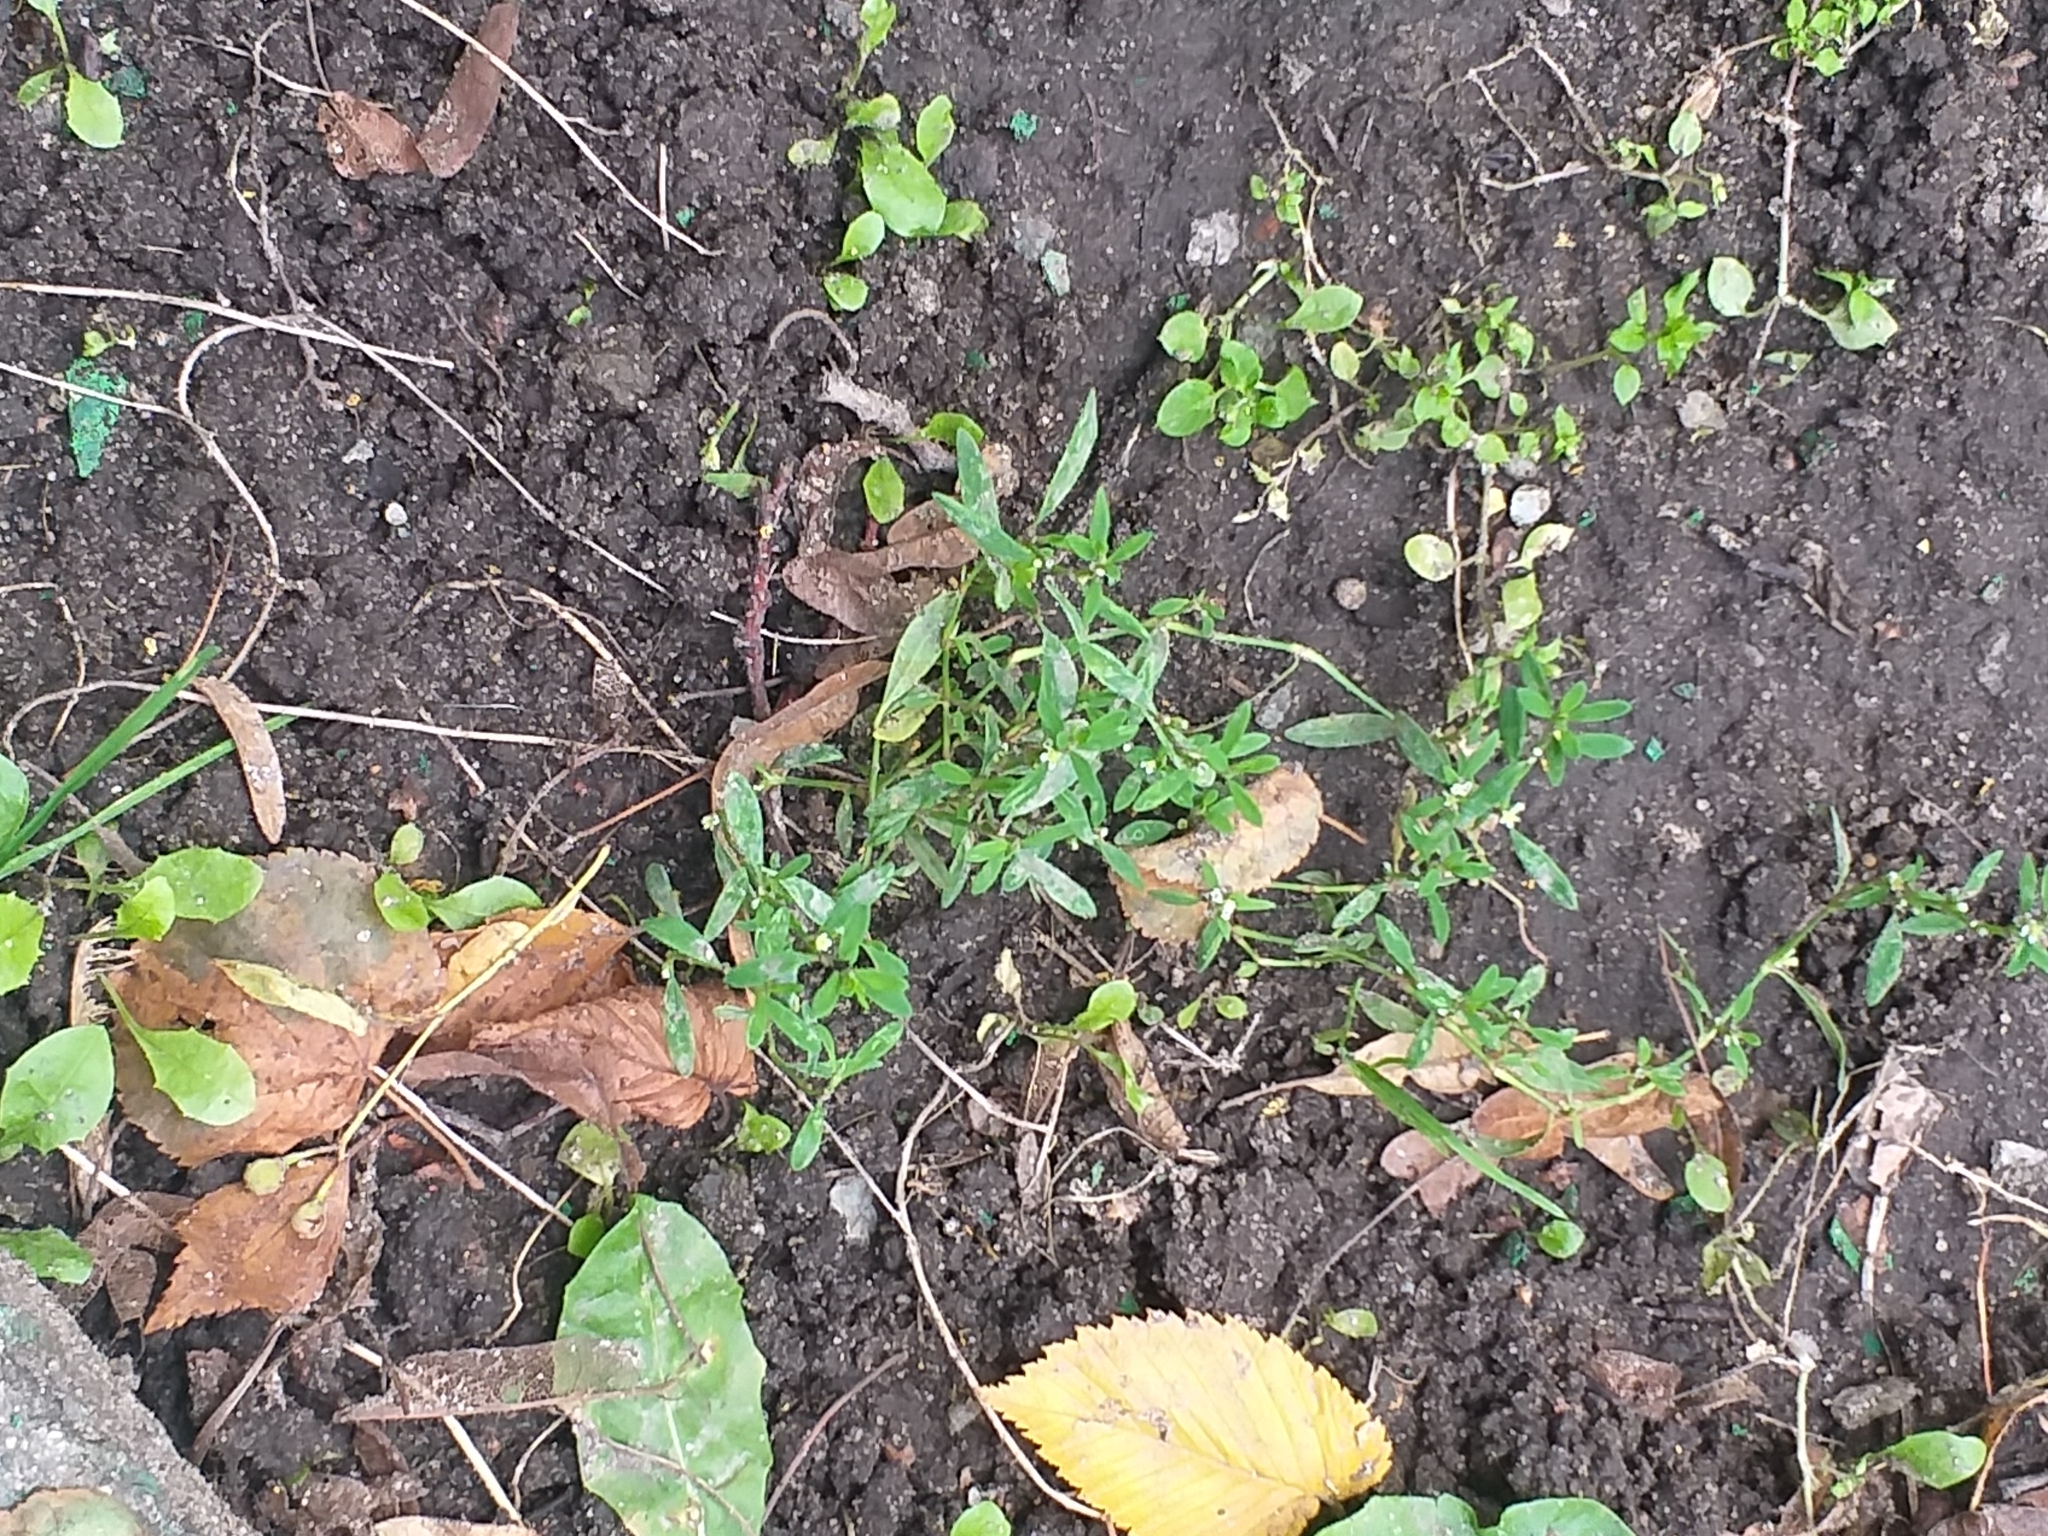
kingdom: Plantae
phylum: Tracheophyta
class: Magnoliopsida
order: Caryophyllales
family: Polygonaceae
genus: Polygonum
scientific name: Polygonum
